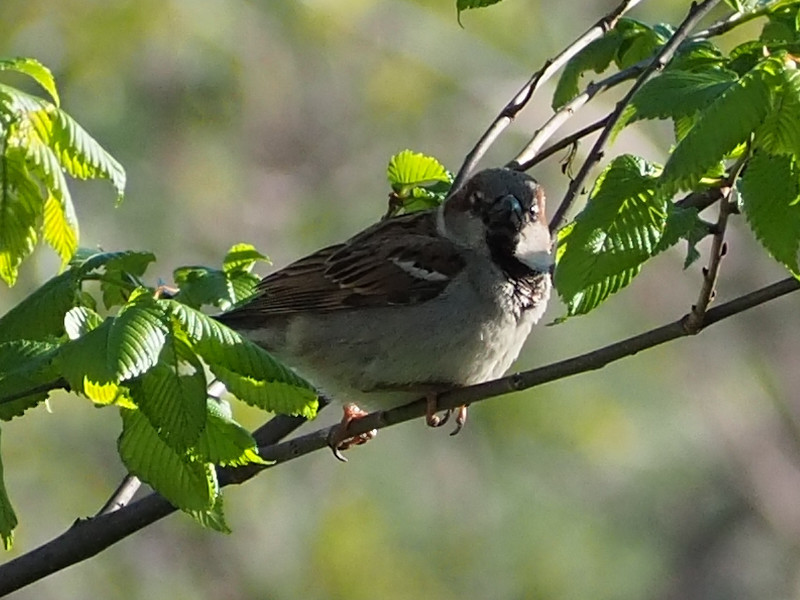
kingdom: Animalia
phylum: Chordata
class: Aves
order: Passeriformes
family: Passeridae
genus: Passer
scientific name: Passer domesticus
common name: House sparrow
